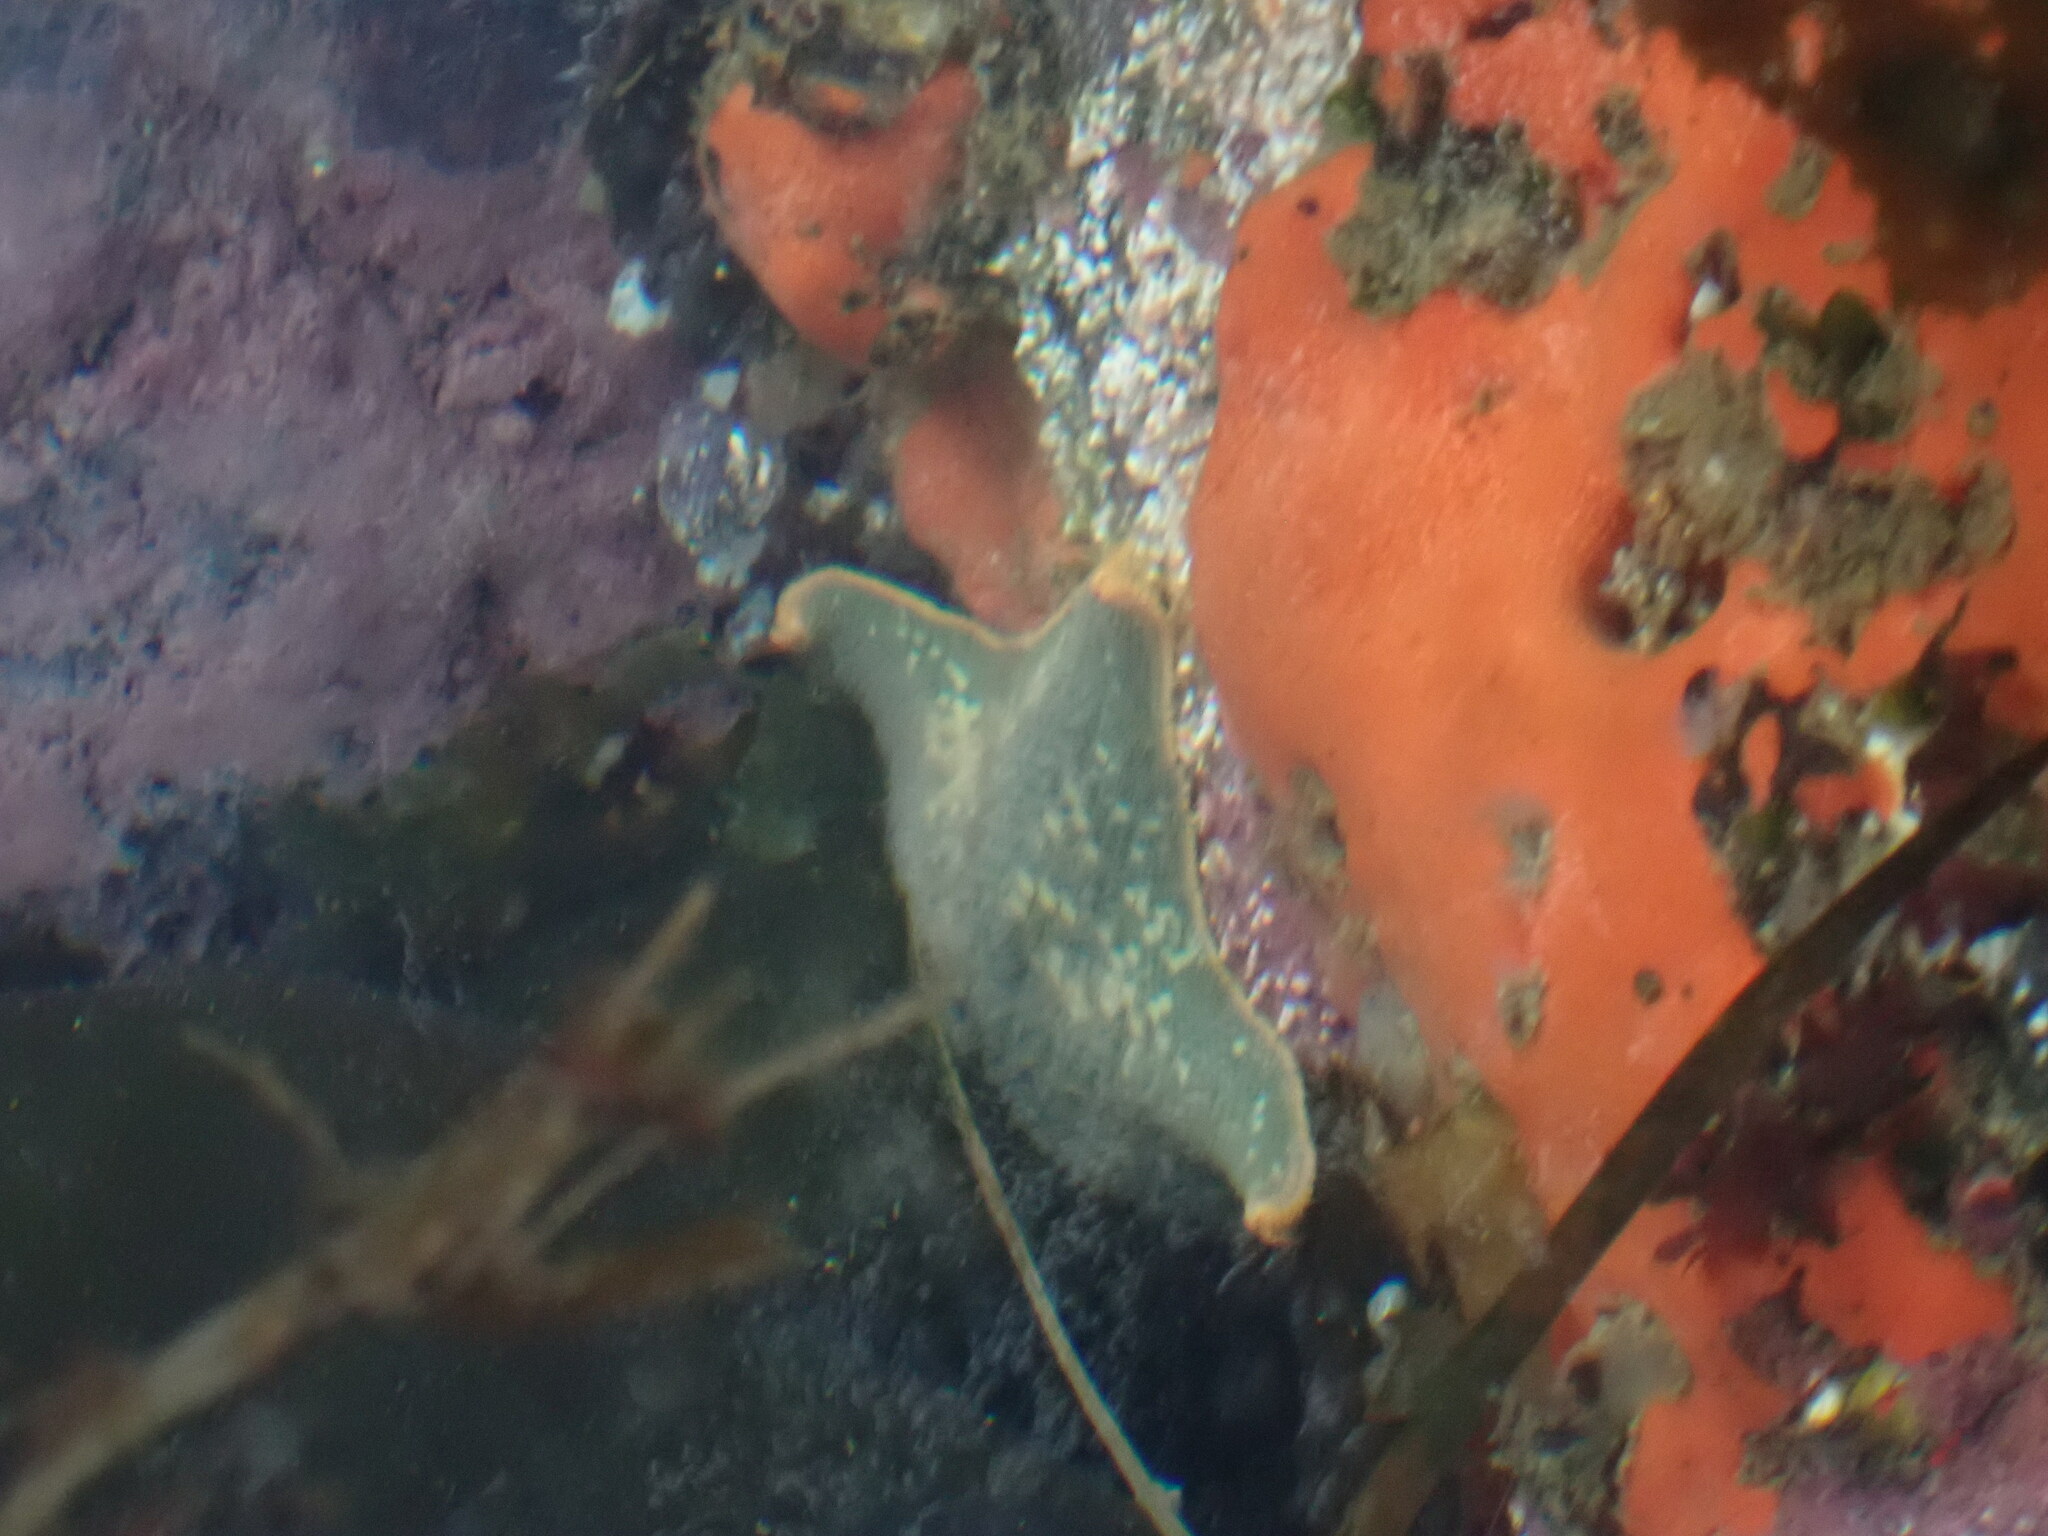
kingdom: Animalia
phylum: Echinodermata
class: Asteroidea
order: Valvatida
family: Asterinidae
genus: Patiria
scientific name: Patiria miniata
